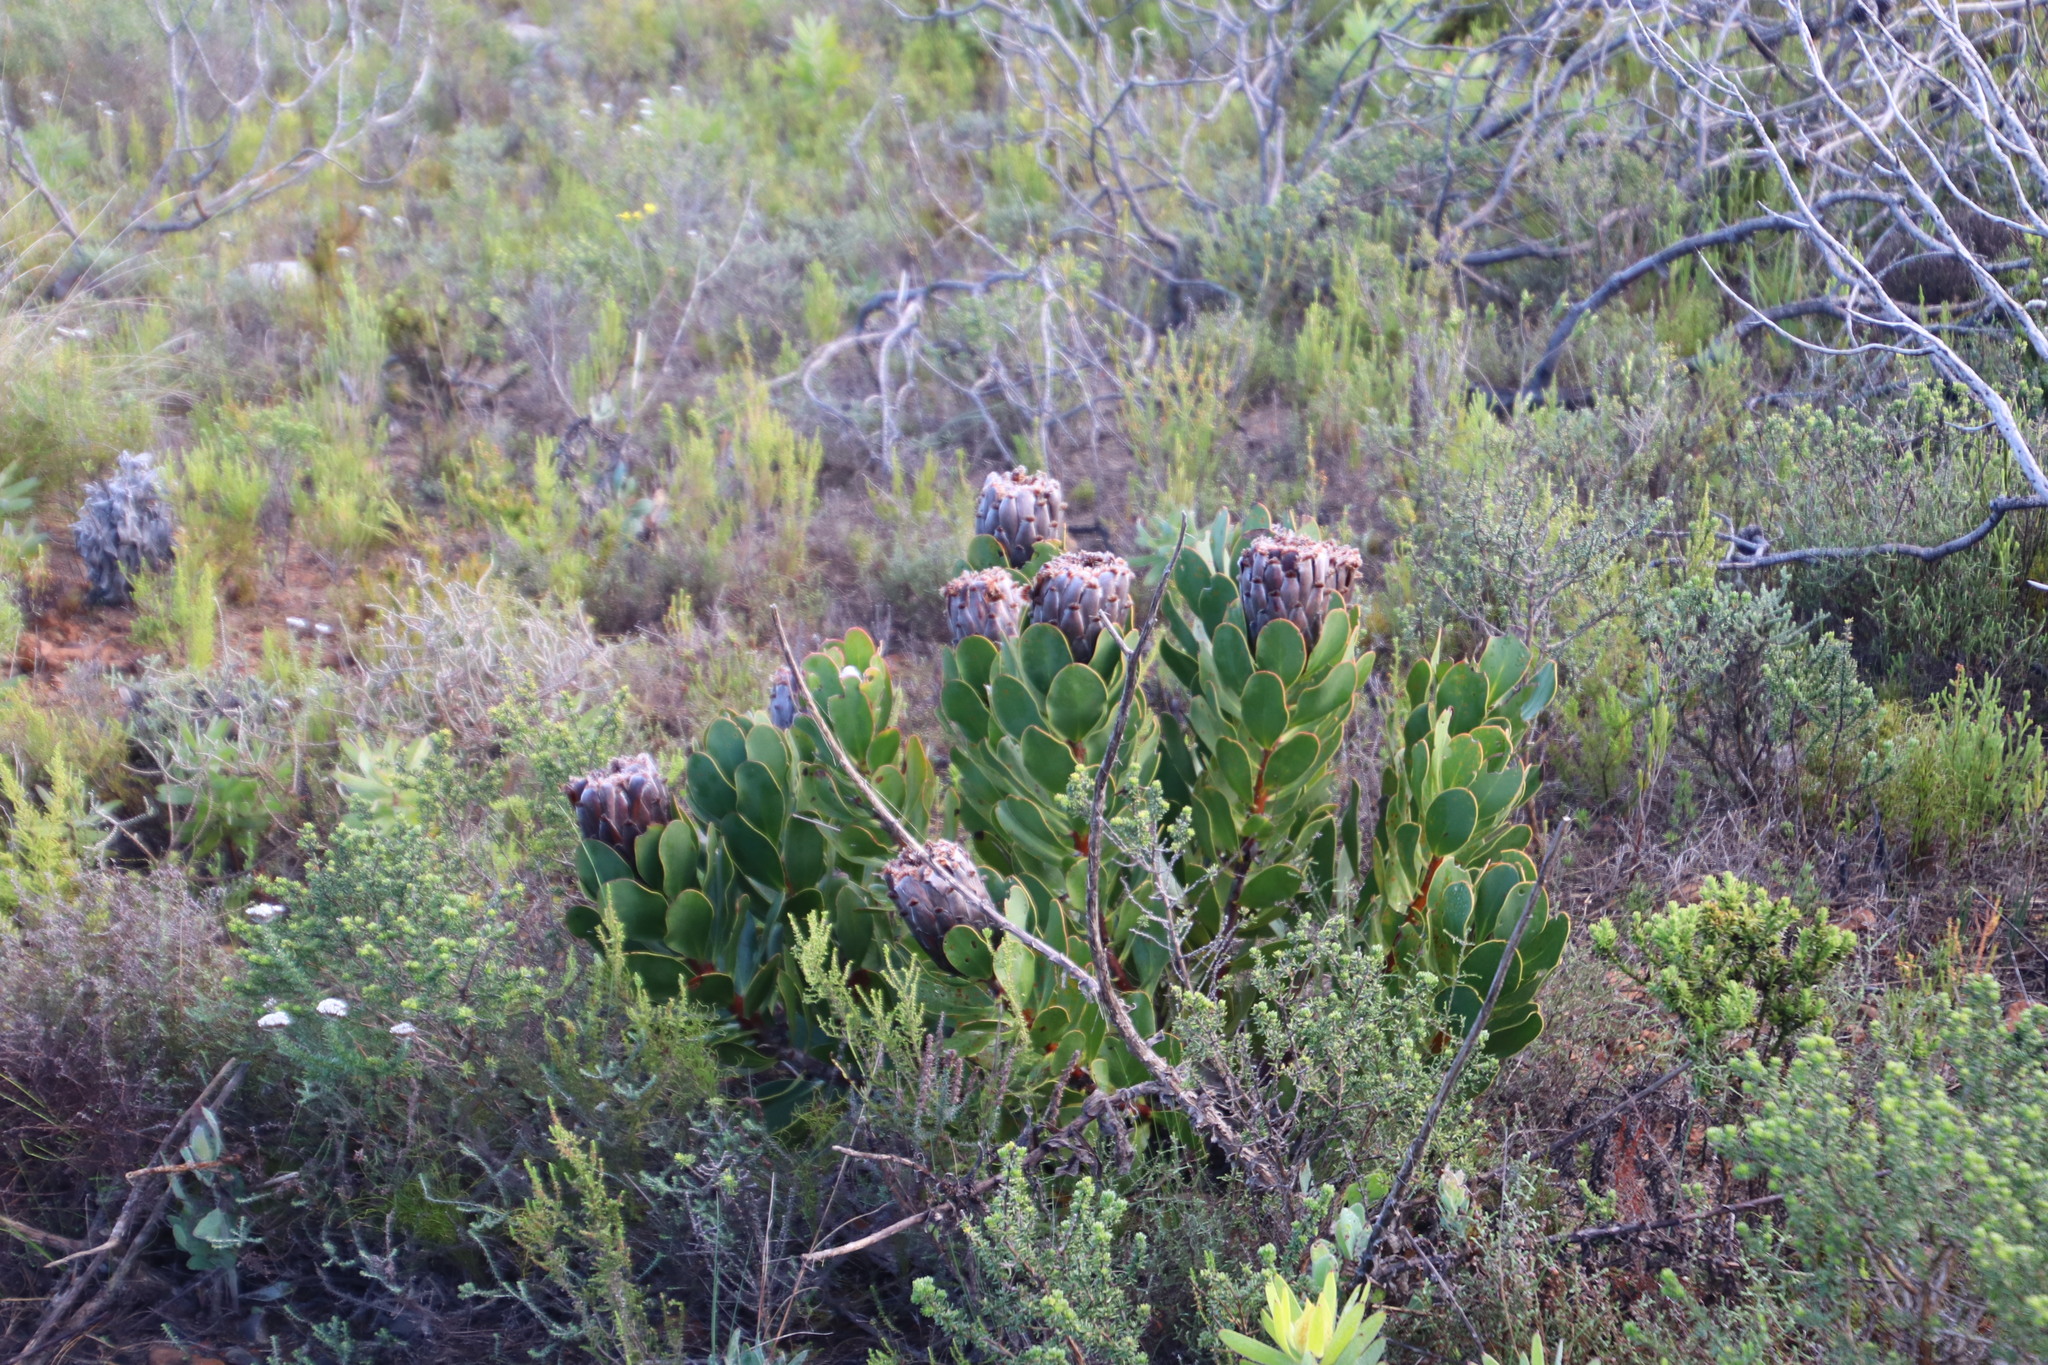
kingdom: Plantae
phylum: Tracheophyta
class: Magnoliopsida
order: Proteales
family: Proteaceae
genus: Protea
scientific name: Protea speciosa
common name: Brown-beard sugarbush
